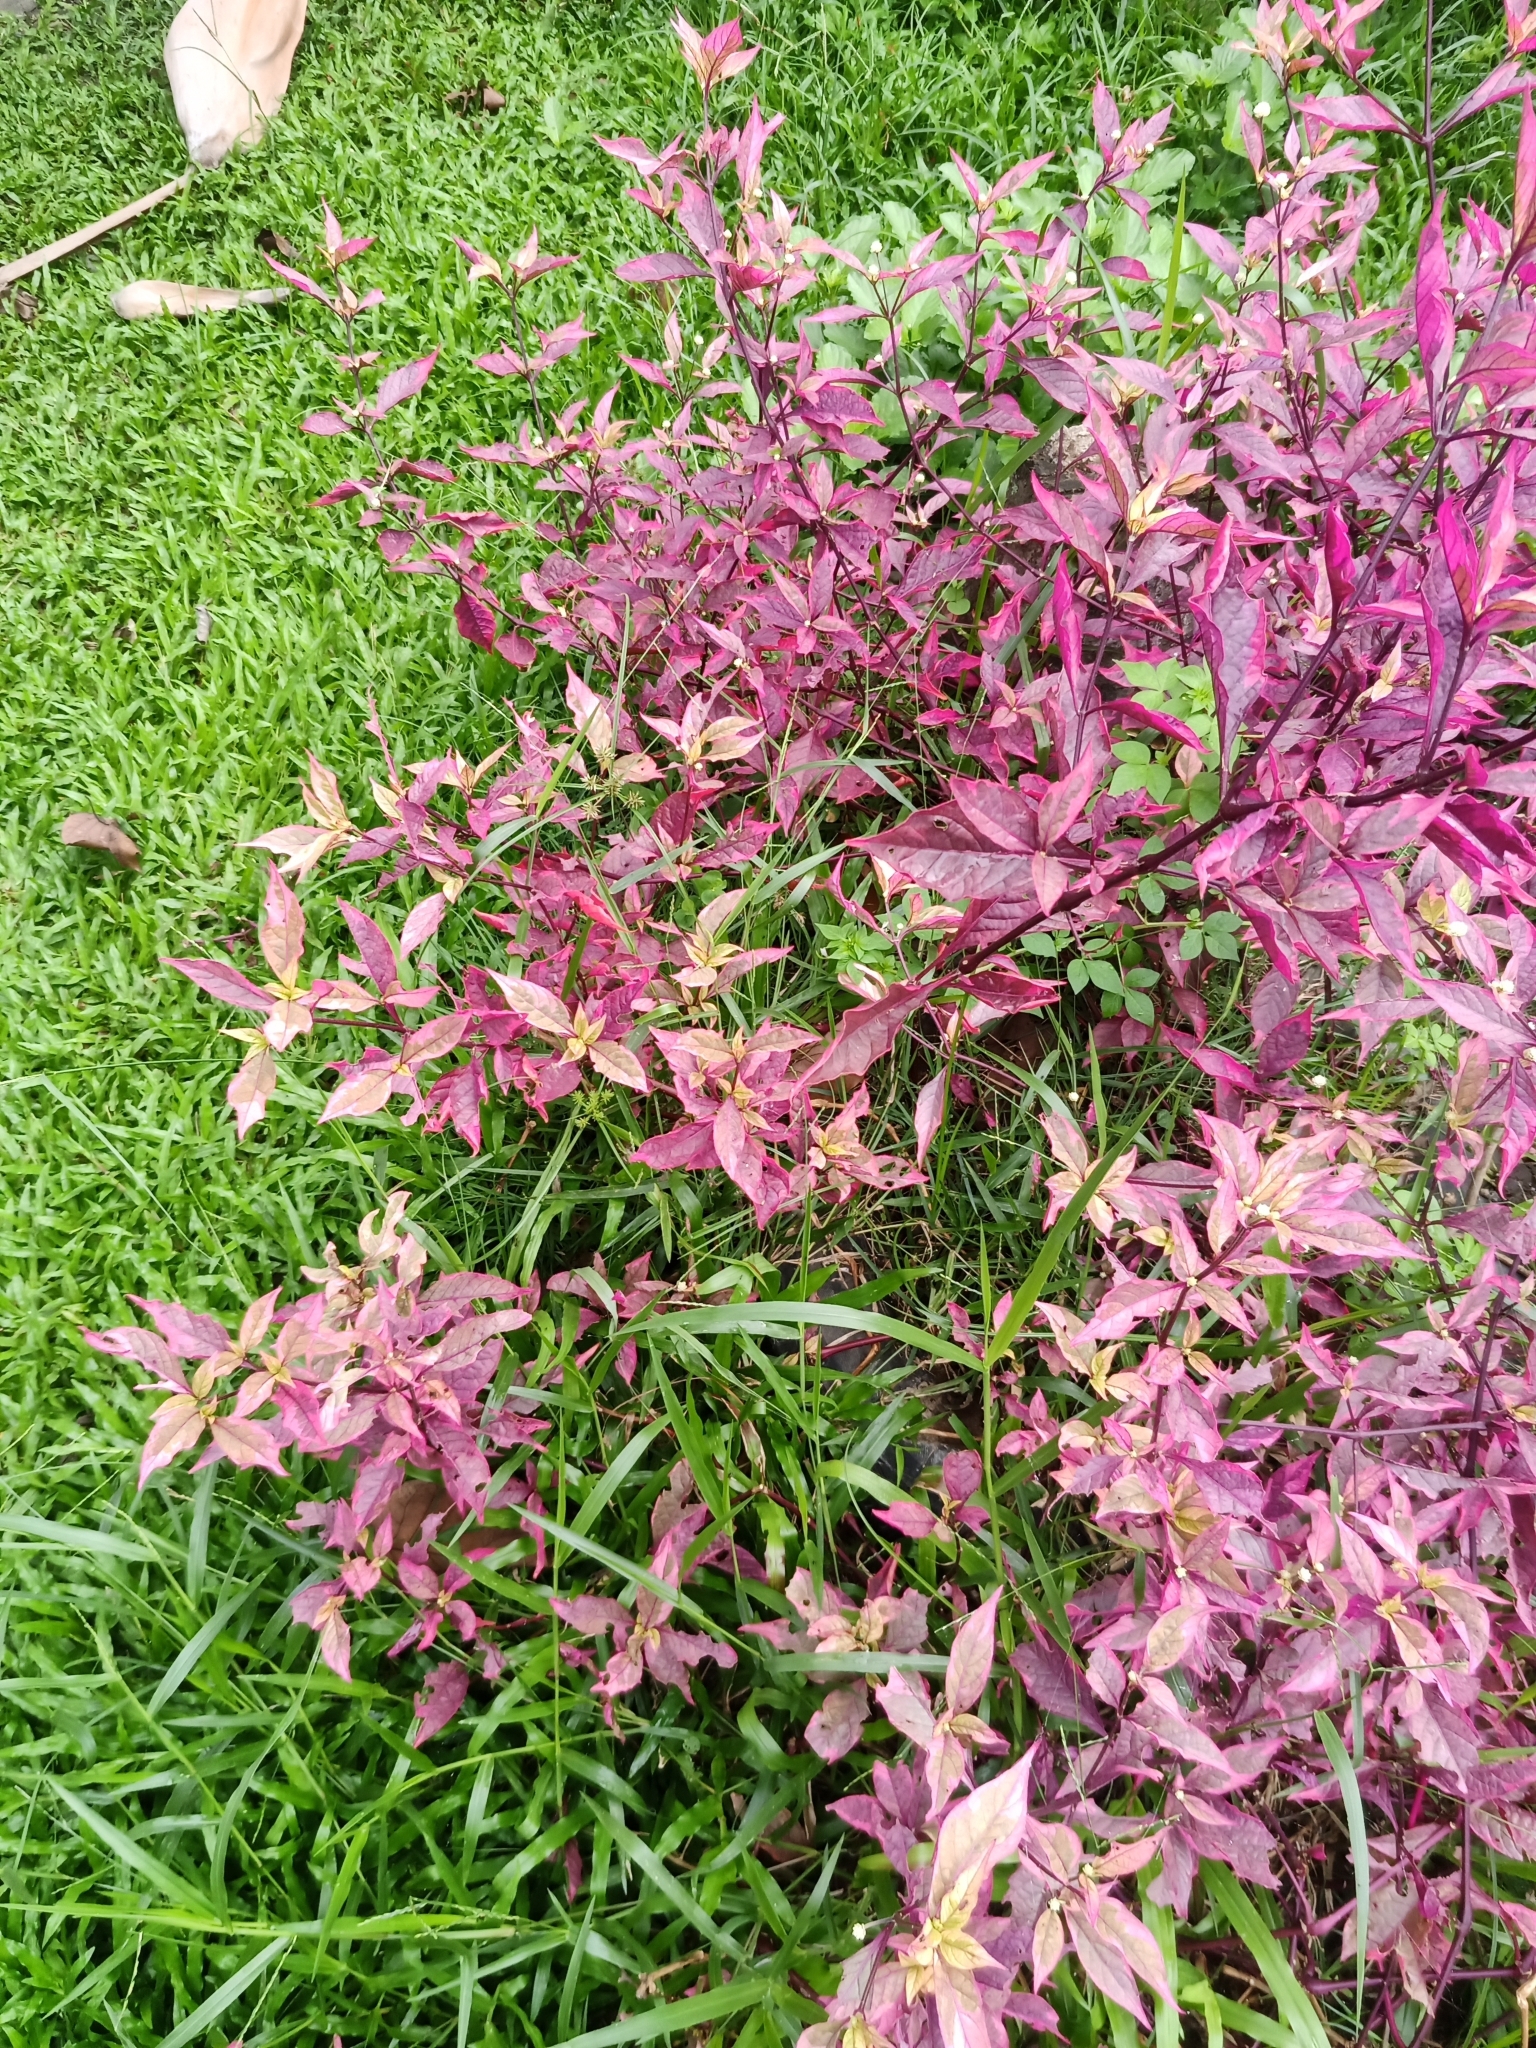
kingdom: Plantae
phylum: Tracheophyta
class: Magnoliopsida
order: Caryophyllales
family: Amaranthaceae
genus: Alternanthera
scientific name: Alternanthera brasiliana
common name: Brazilian joyweed
